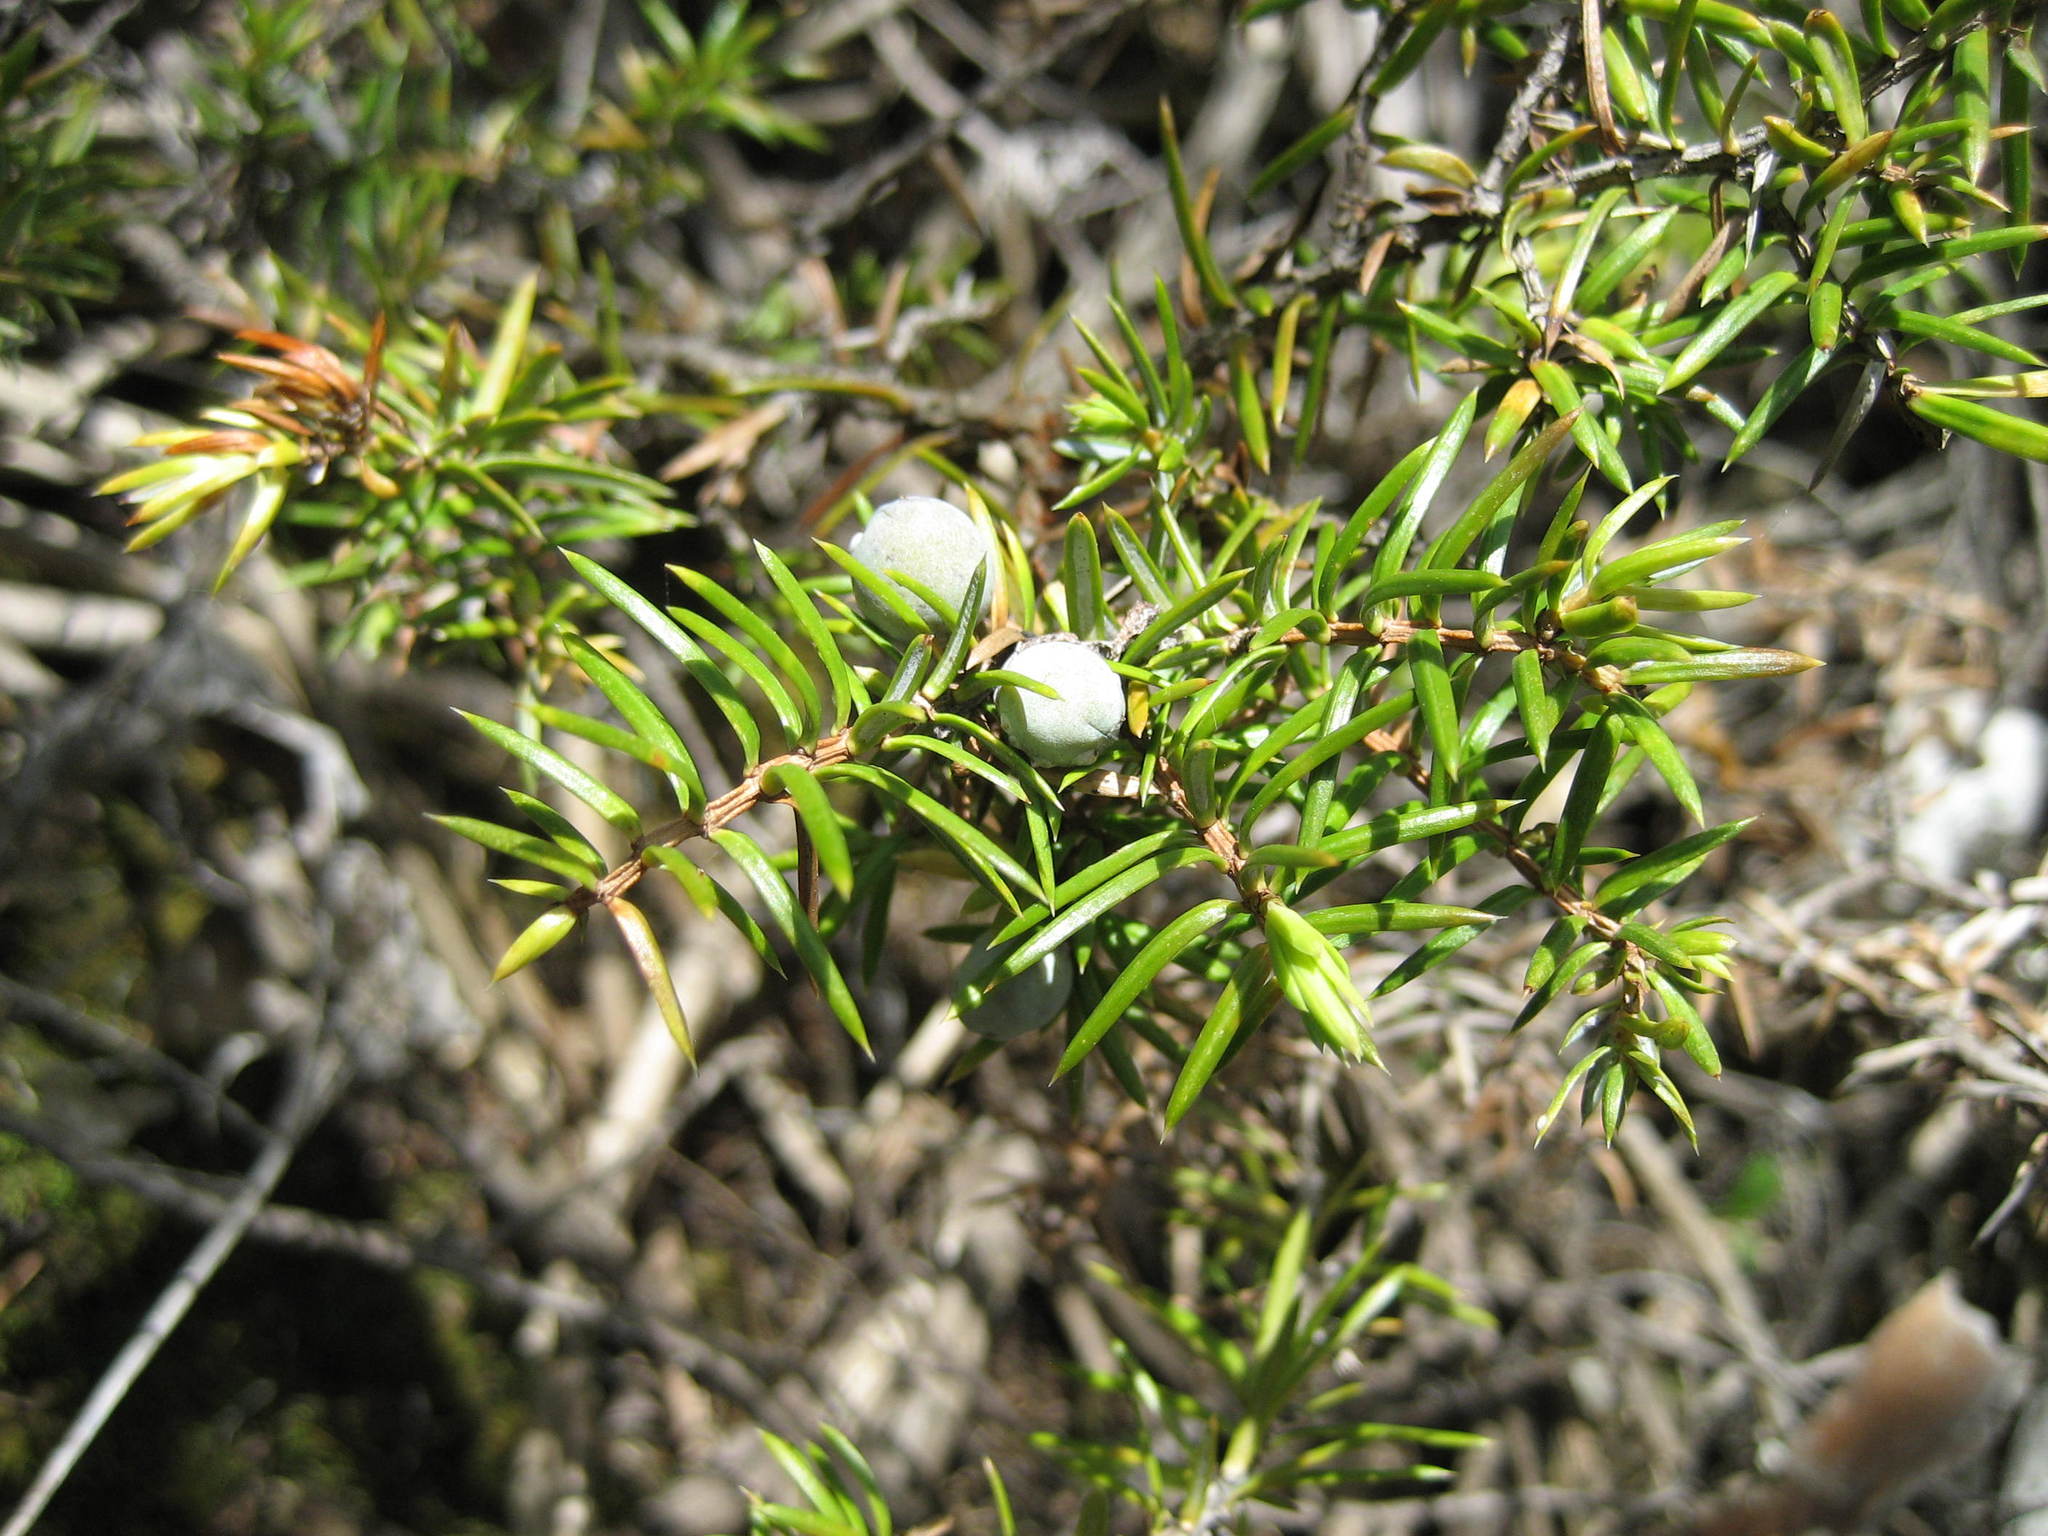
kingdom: Plantae
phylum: Tracheophyta
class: Pinopsida
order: Pinales
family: Cupressaceae
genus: Juniperus
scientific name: Juniperus communis
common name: Common juniper
